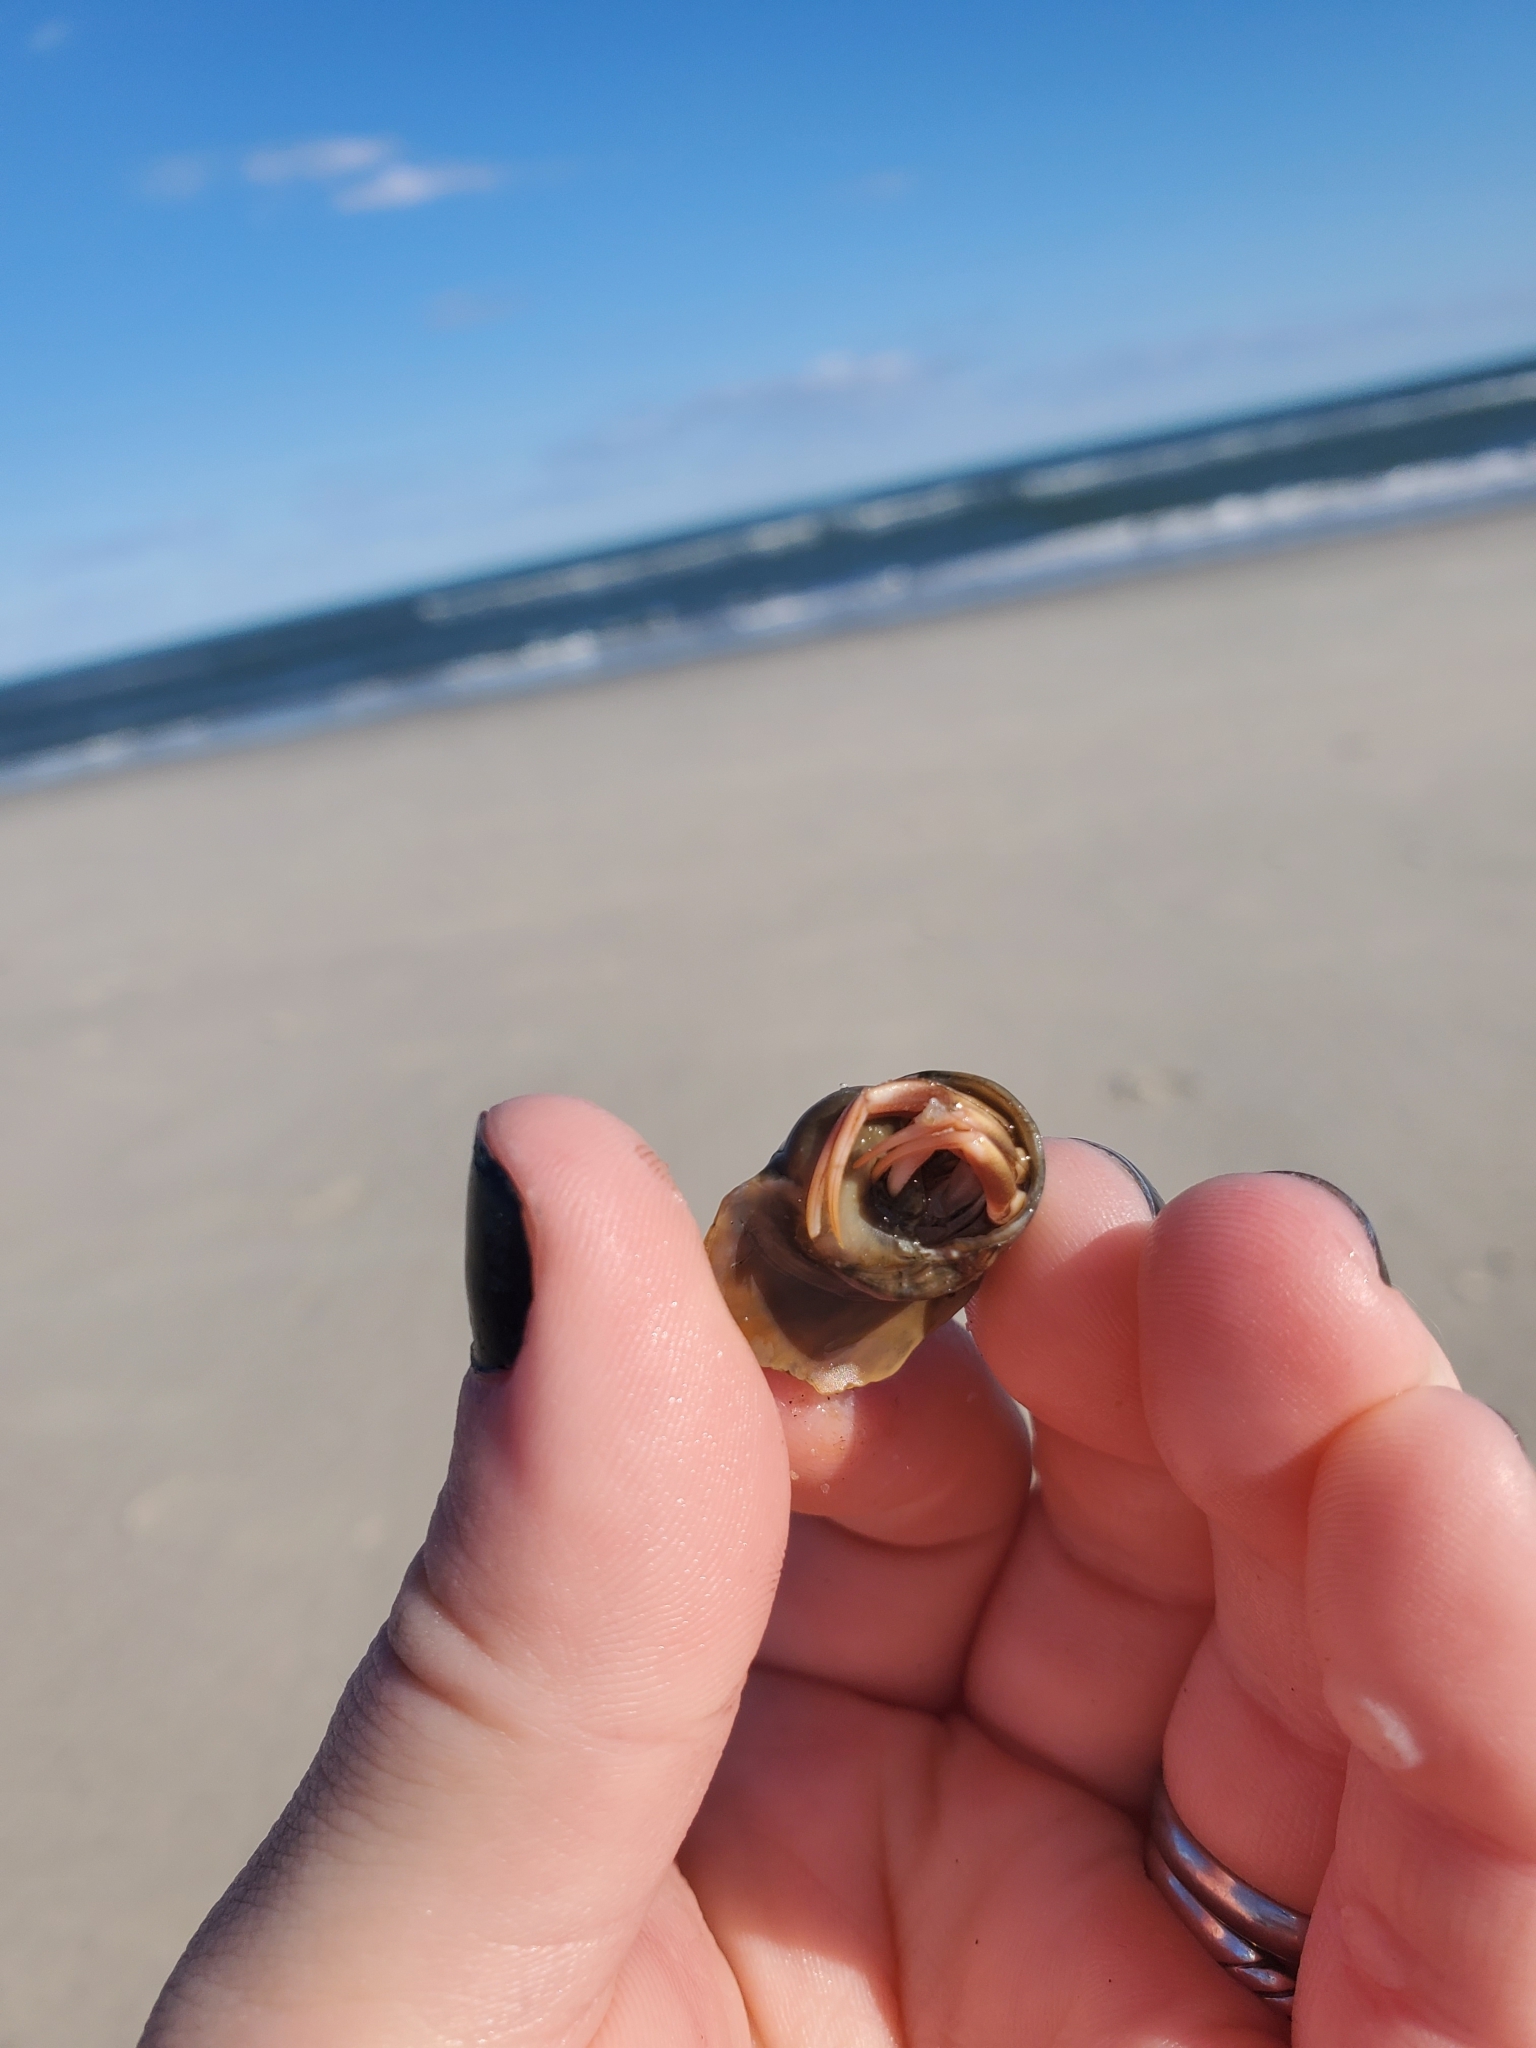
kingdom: Animalia
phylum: Arthropoda
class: Malacostraca
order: Decapoda
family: Paguridae
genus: Pagurus
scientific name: Pagurus longicarpus
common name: Long-armed hermit crab
